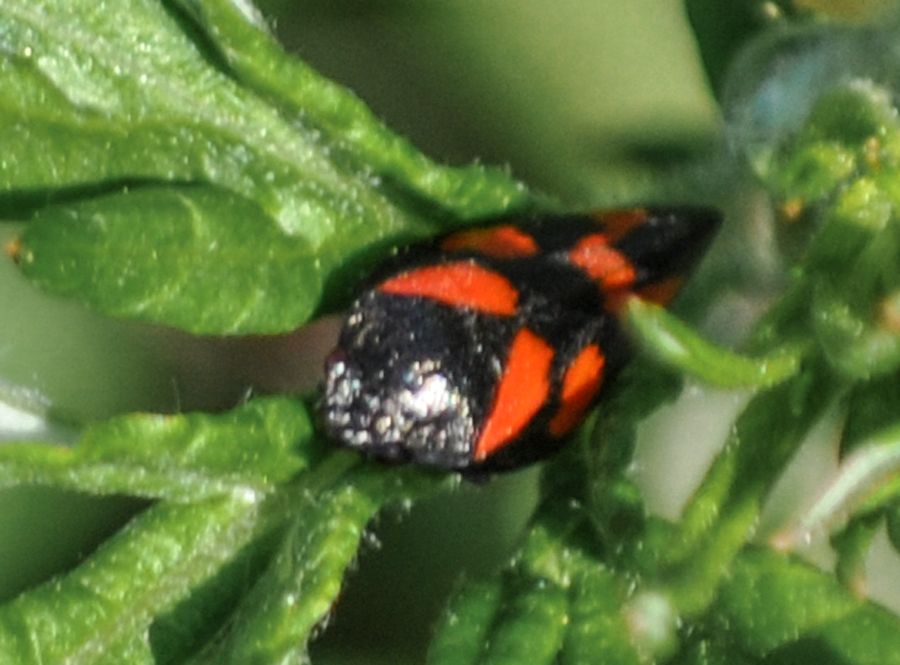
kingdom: Animalia
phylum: Arthropoda
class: Insecta
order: Hemiptera
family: Cercopidae
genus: Cercopis
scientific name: Cercopis vulnerata
